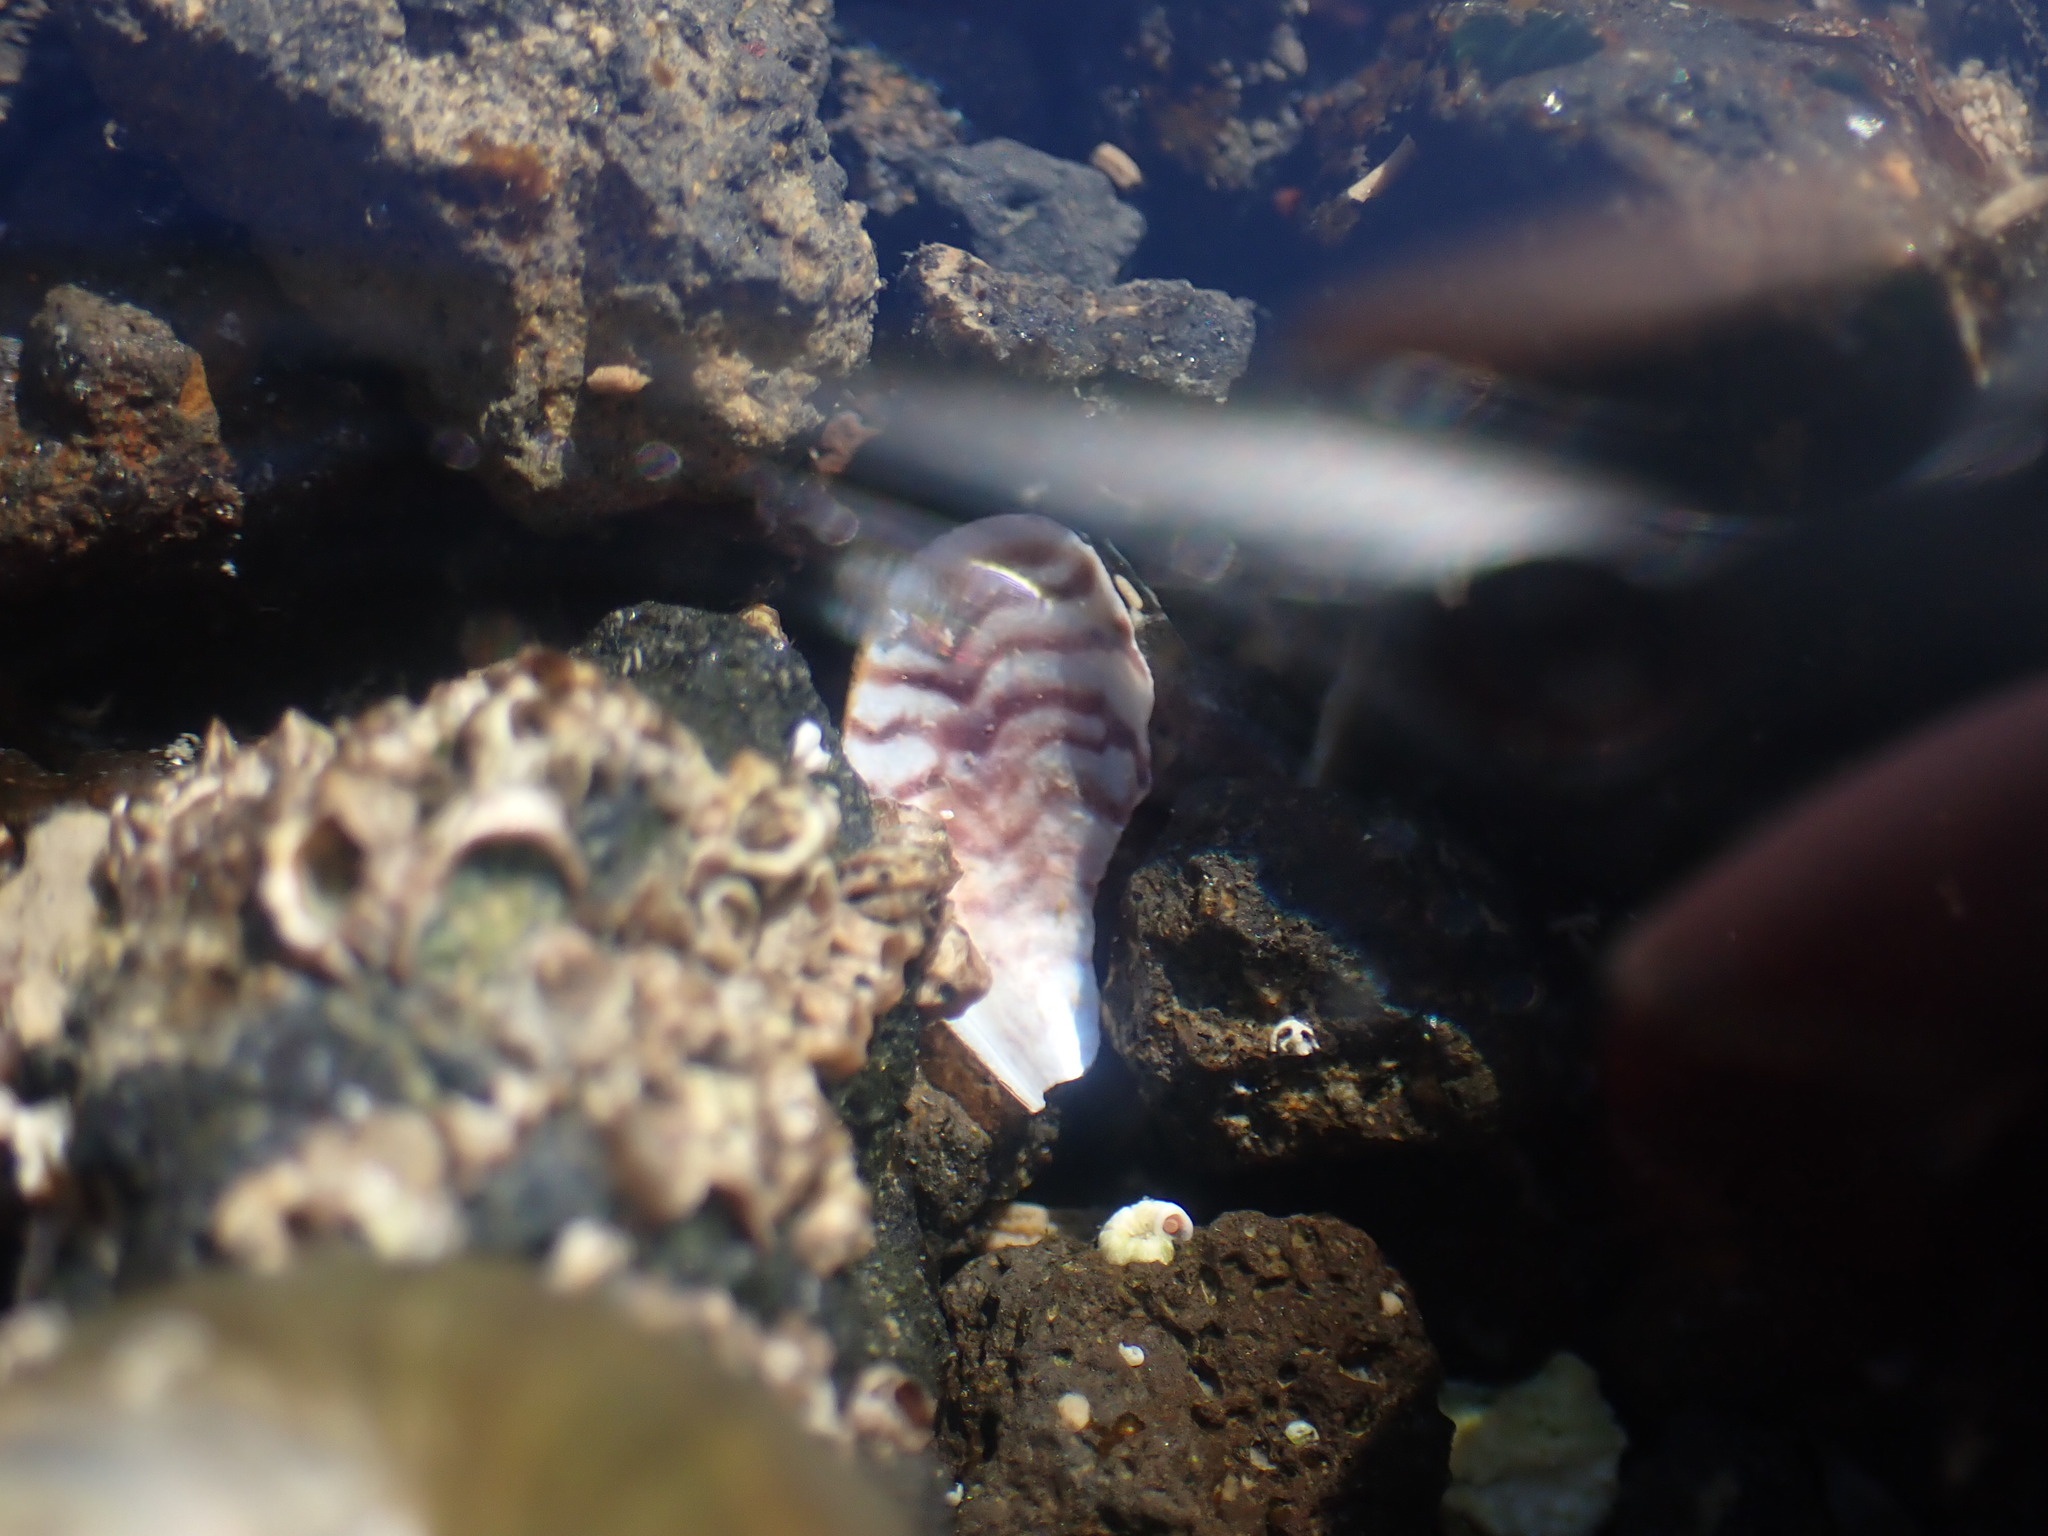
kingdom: Animalia
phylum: Mollusca
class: Bivalvia
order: Mytilida
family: Mytilidae
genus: Arcuatula
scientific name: Arcuatula senhousia
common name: Asian mussel
